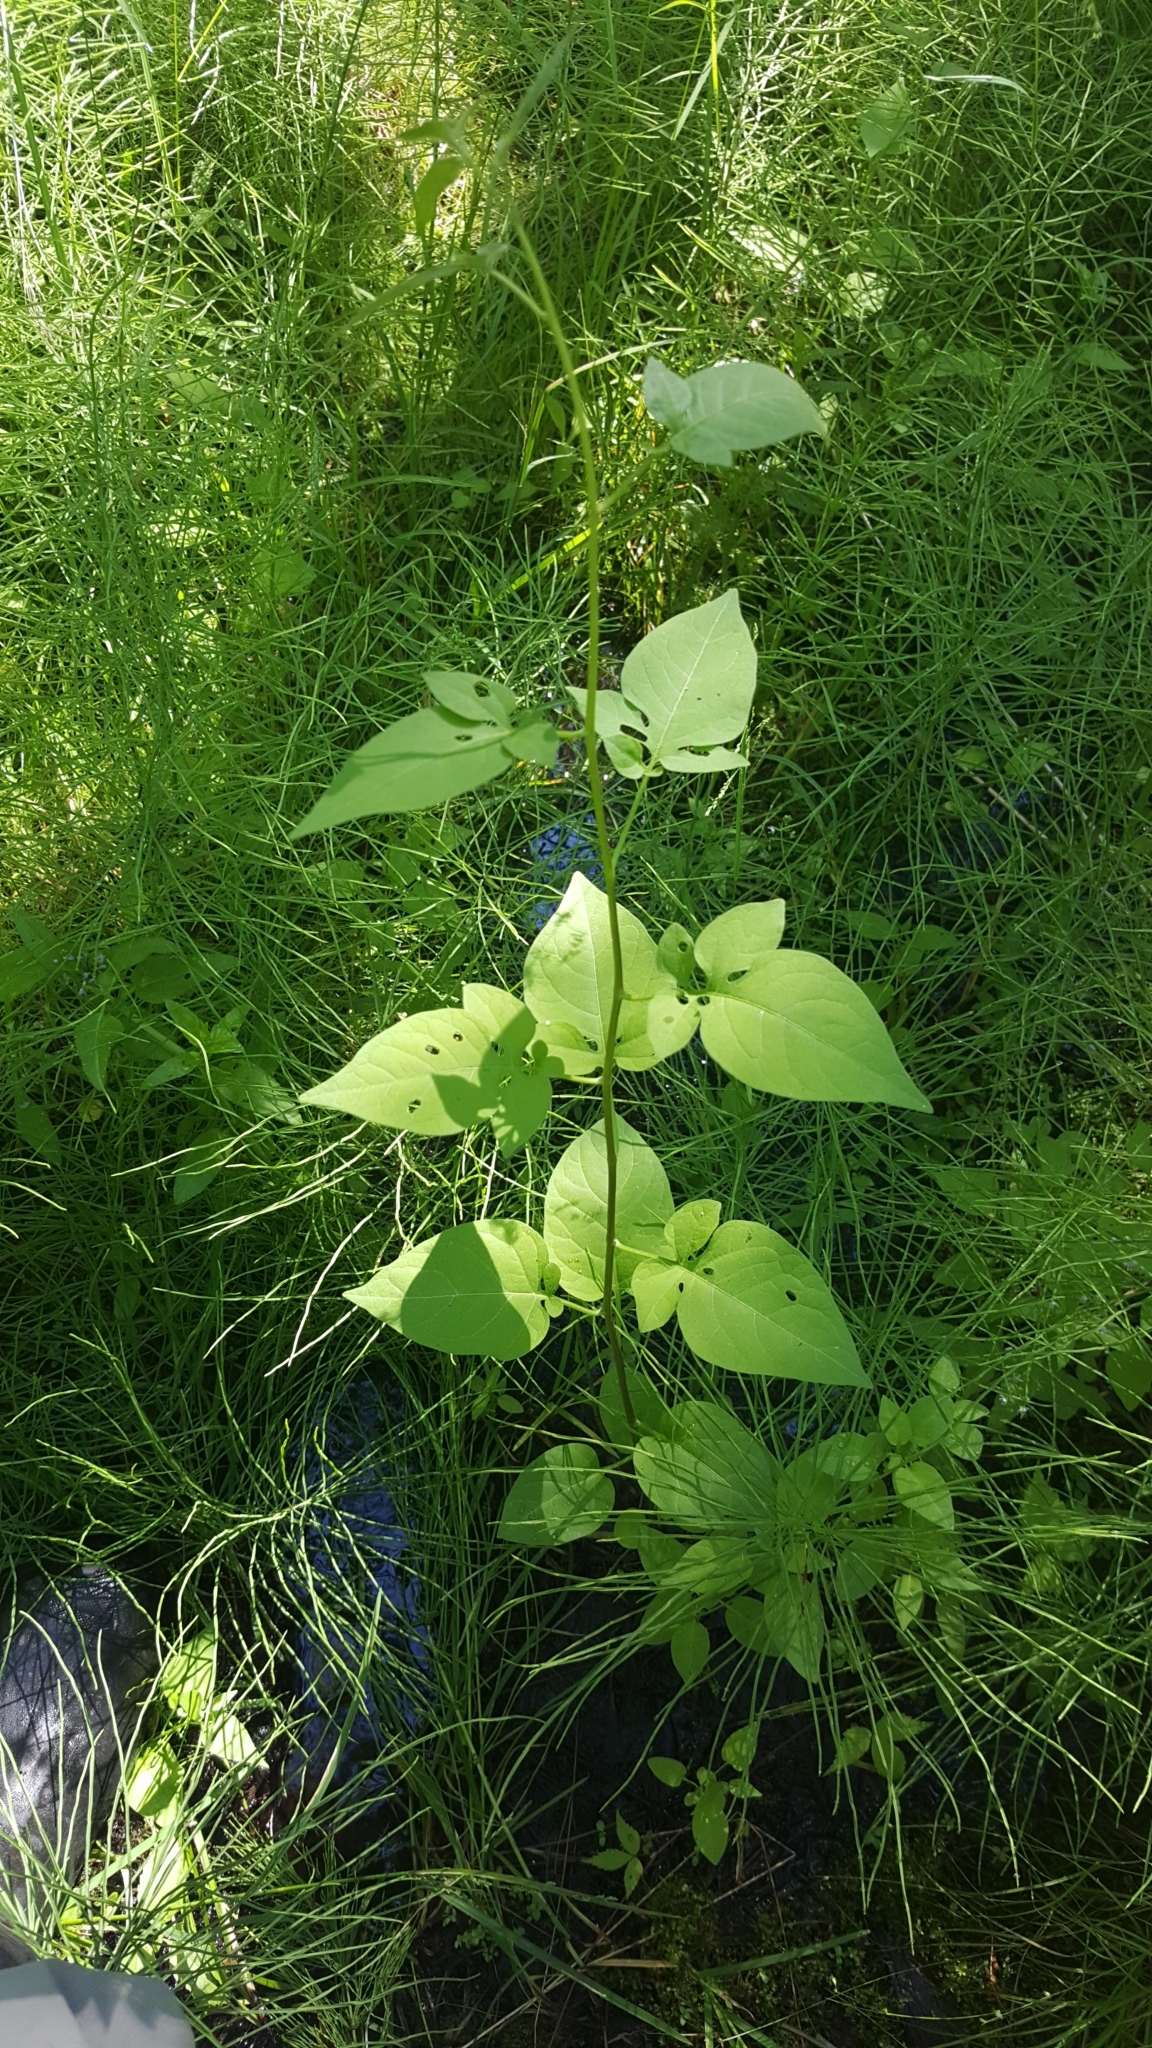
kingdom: Plantae
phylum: Tracheophyta
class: Magnoliopsida
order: Solanales
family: Solanaceae
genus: Solanum
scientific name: Solanum dulcamara
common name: Climbing nightshade
